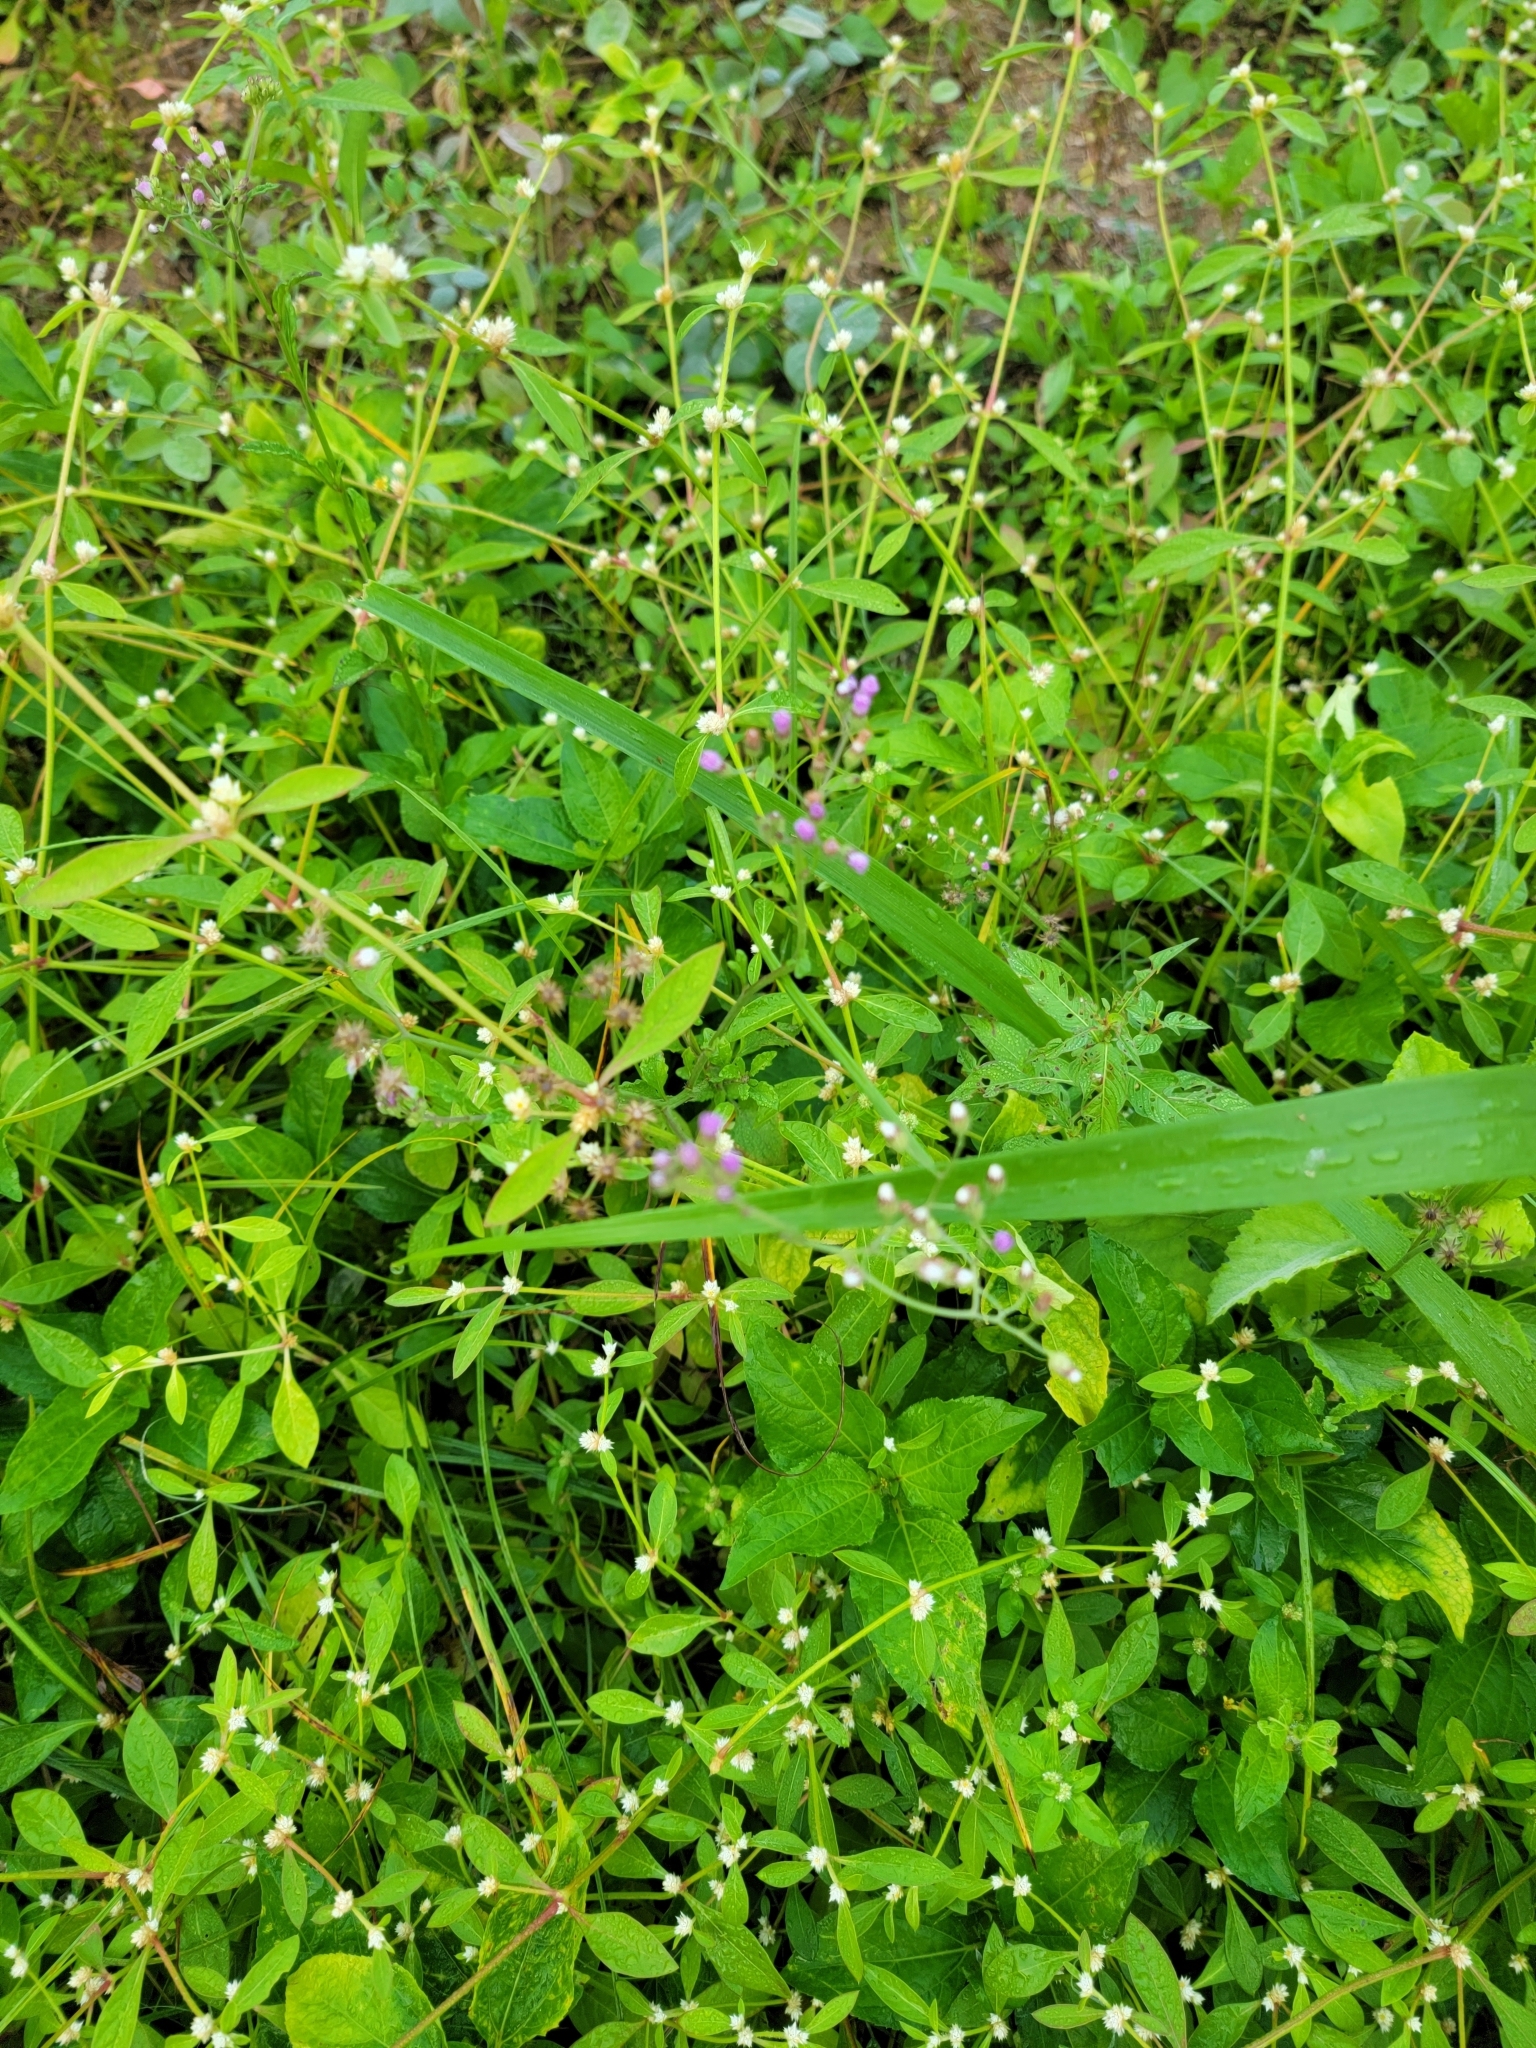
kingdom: Plantae
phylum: Tracheophyta
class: Magnoliopsida
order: Asterales
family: Asteraceae
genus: Cyanthillium
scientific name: Cyanthillium cinereum
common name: Little ironweed
